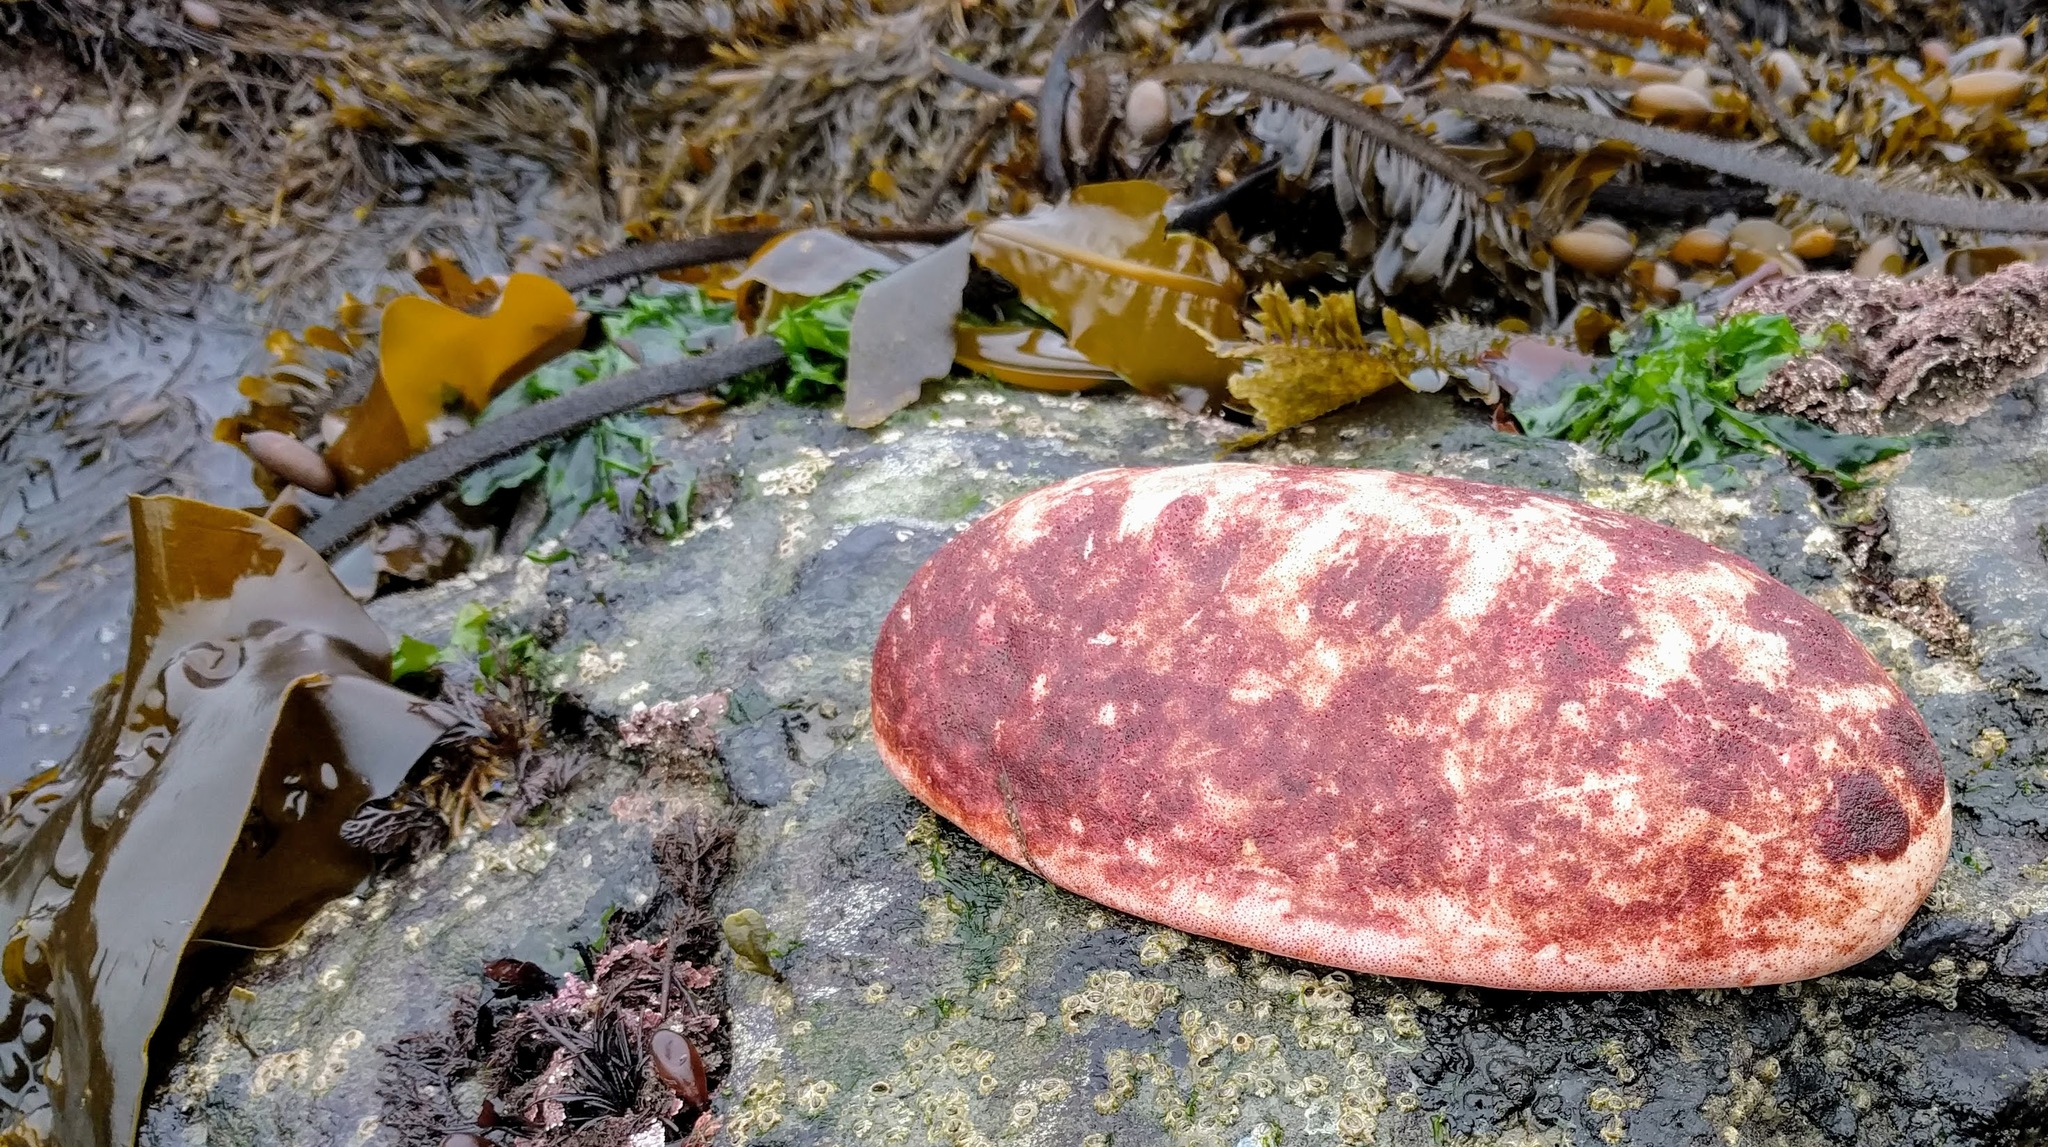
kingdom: Animalia
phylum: Mollusca
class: Polyplacophora
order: Chitonida
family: Acanthochitonidae
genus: Cryptochiton
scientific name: Cryptochiton stelleri
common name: Giant pacific chiton
